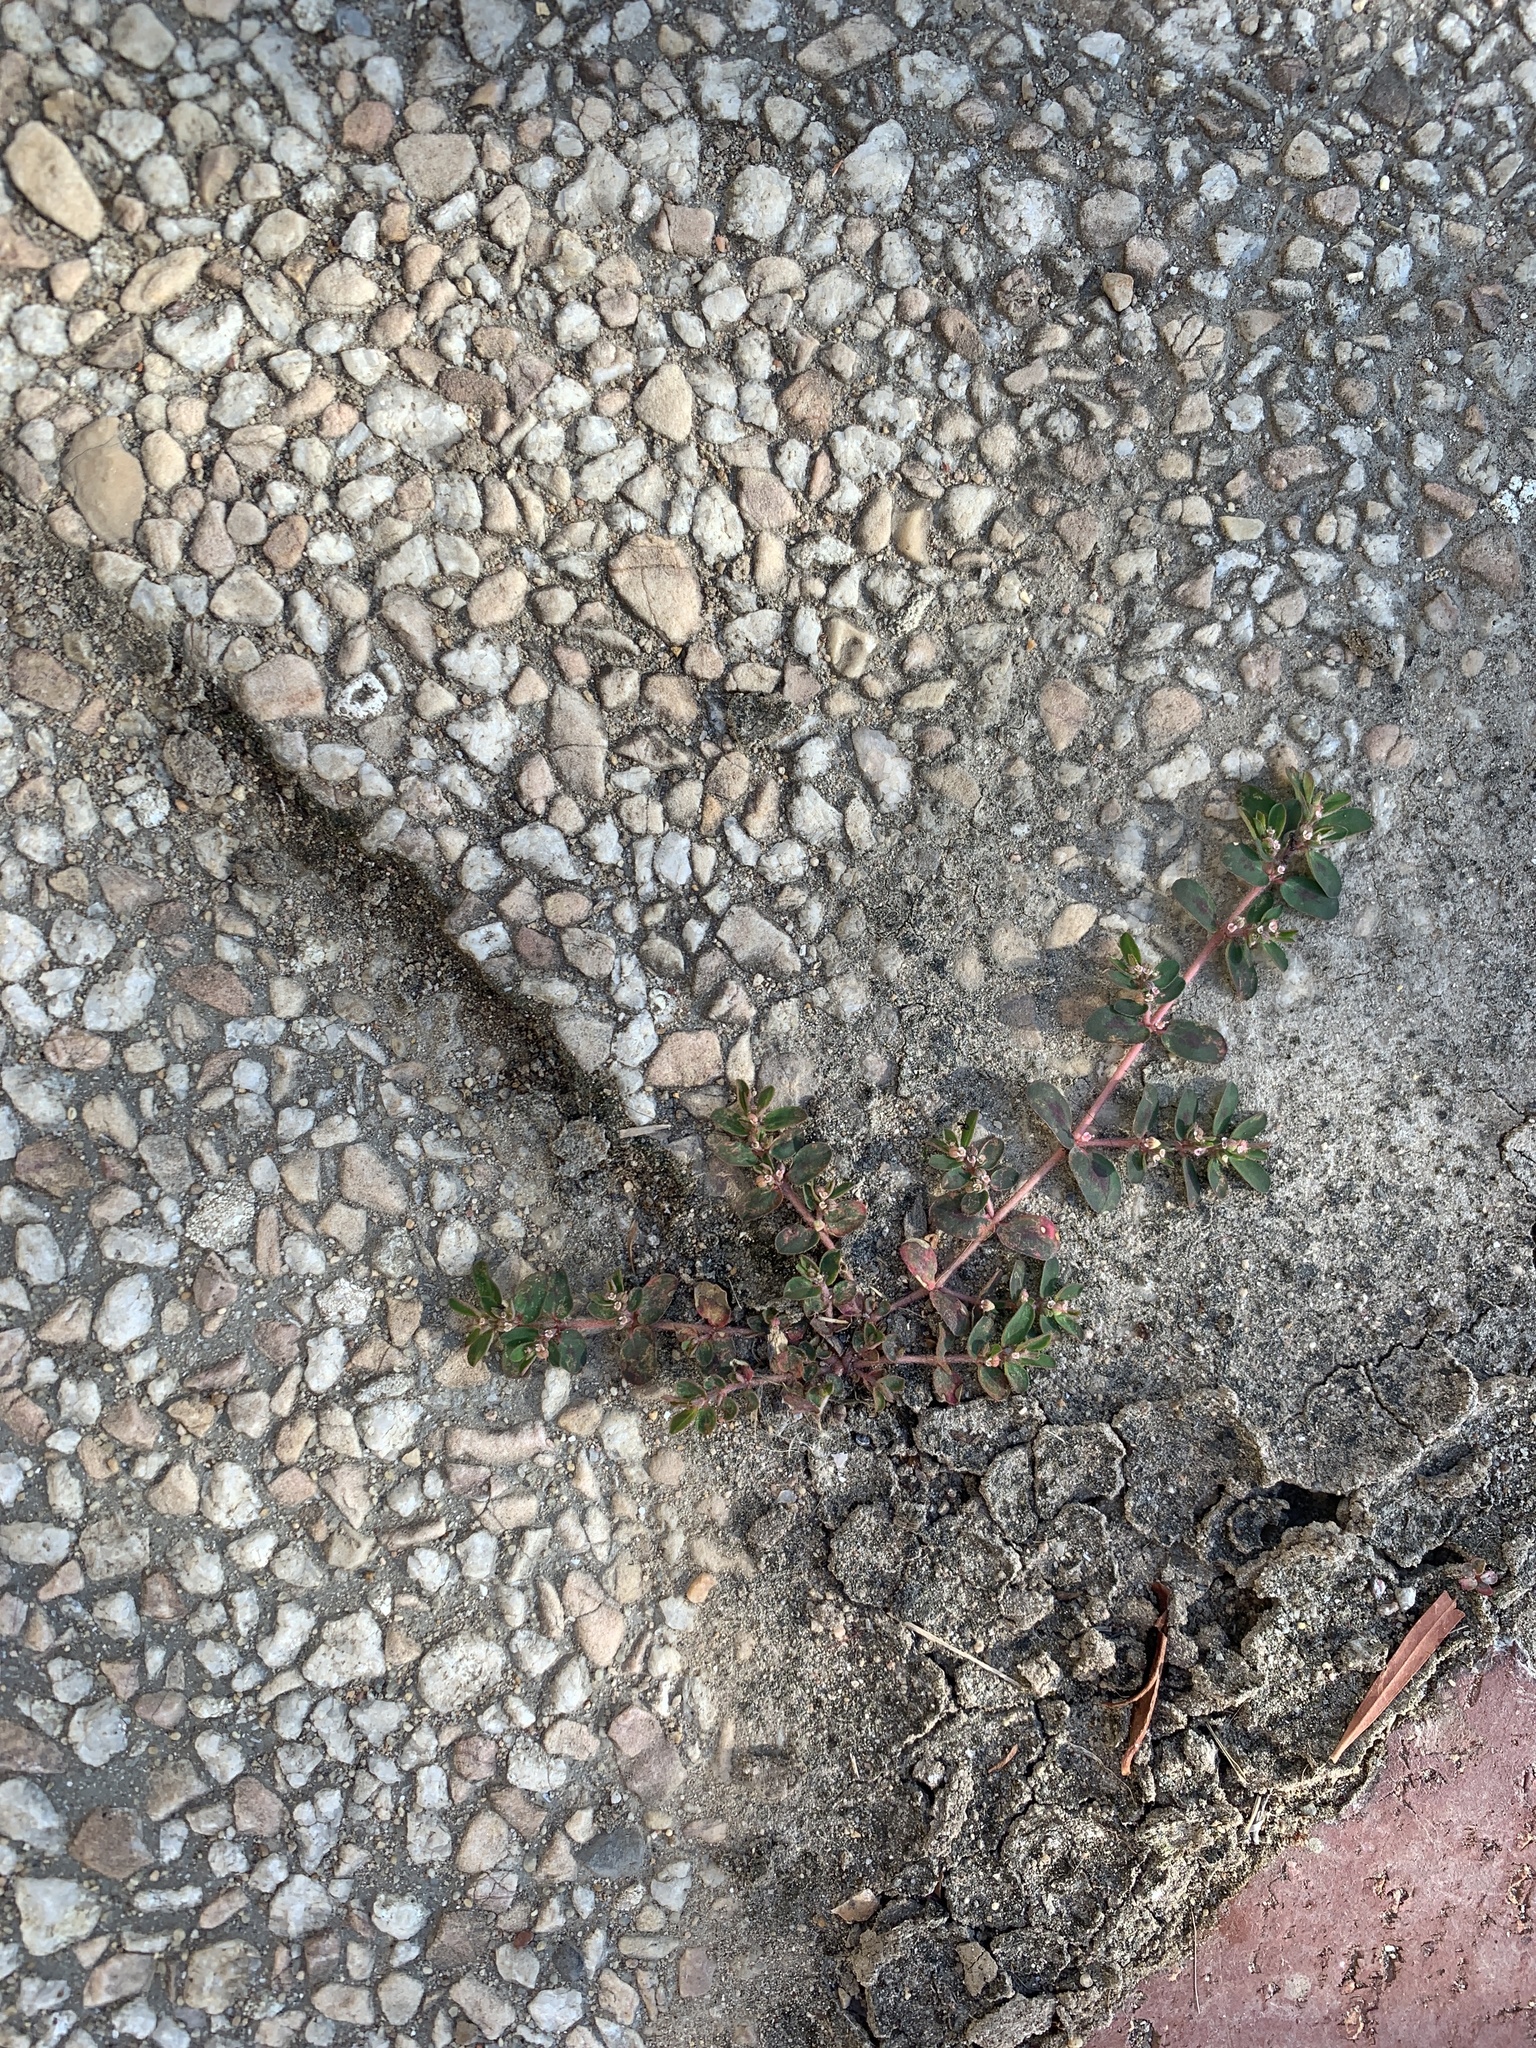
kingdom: Plantae
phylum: Tracheophyta
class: Magnoliopsida
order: Malpighiales
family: Euphorbiaceae
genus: Euphorbia
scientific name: Euphorbia maculata
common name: Spotted spurge
